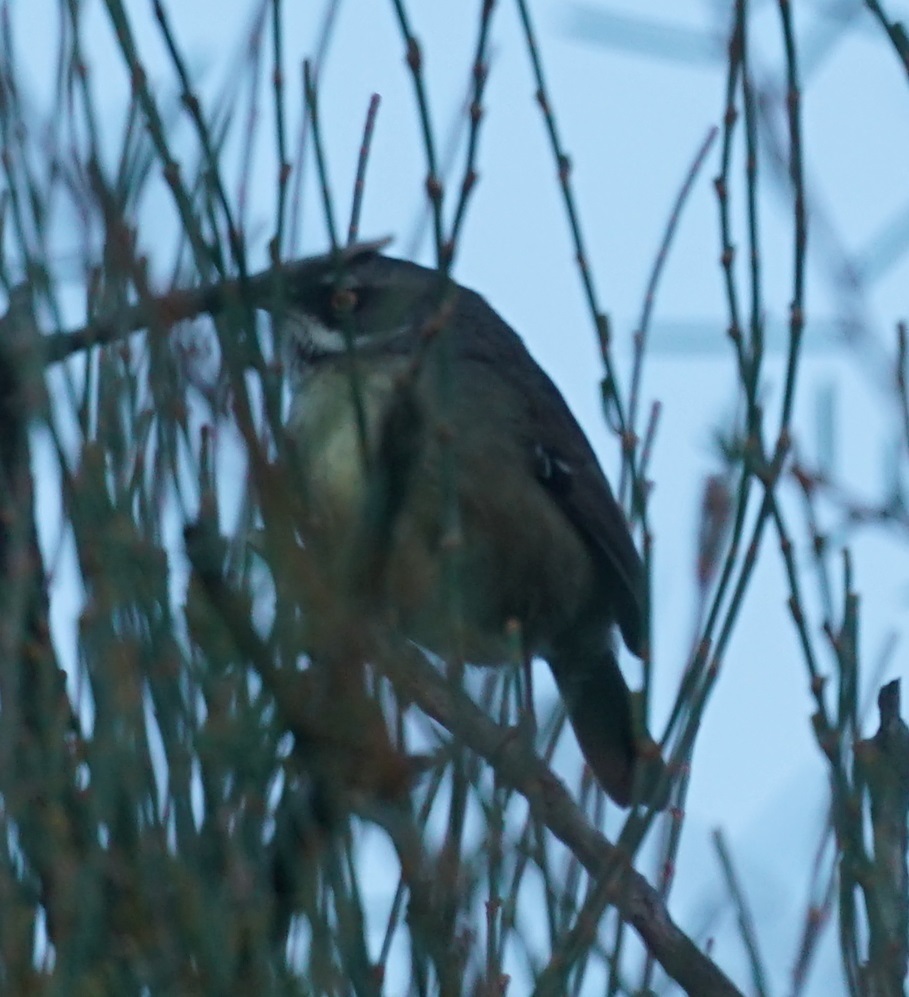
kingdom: Animalia
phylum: Chordata
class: Aves
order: Passeriformes
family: Acanthizidae
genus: Sericornis
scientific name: Sericornis frontalis
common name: White-browed scrubwren
